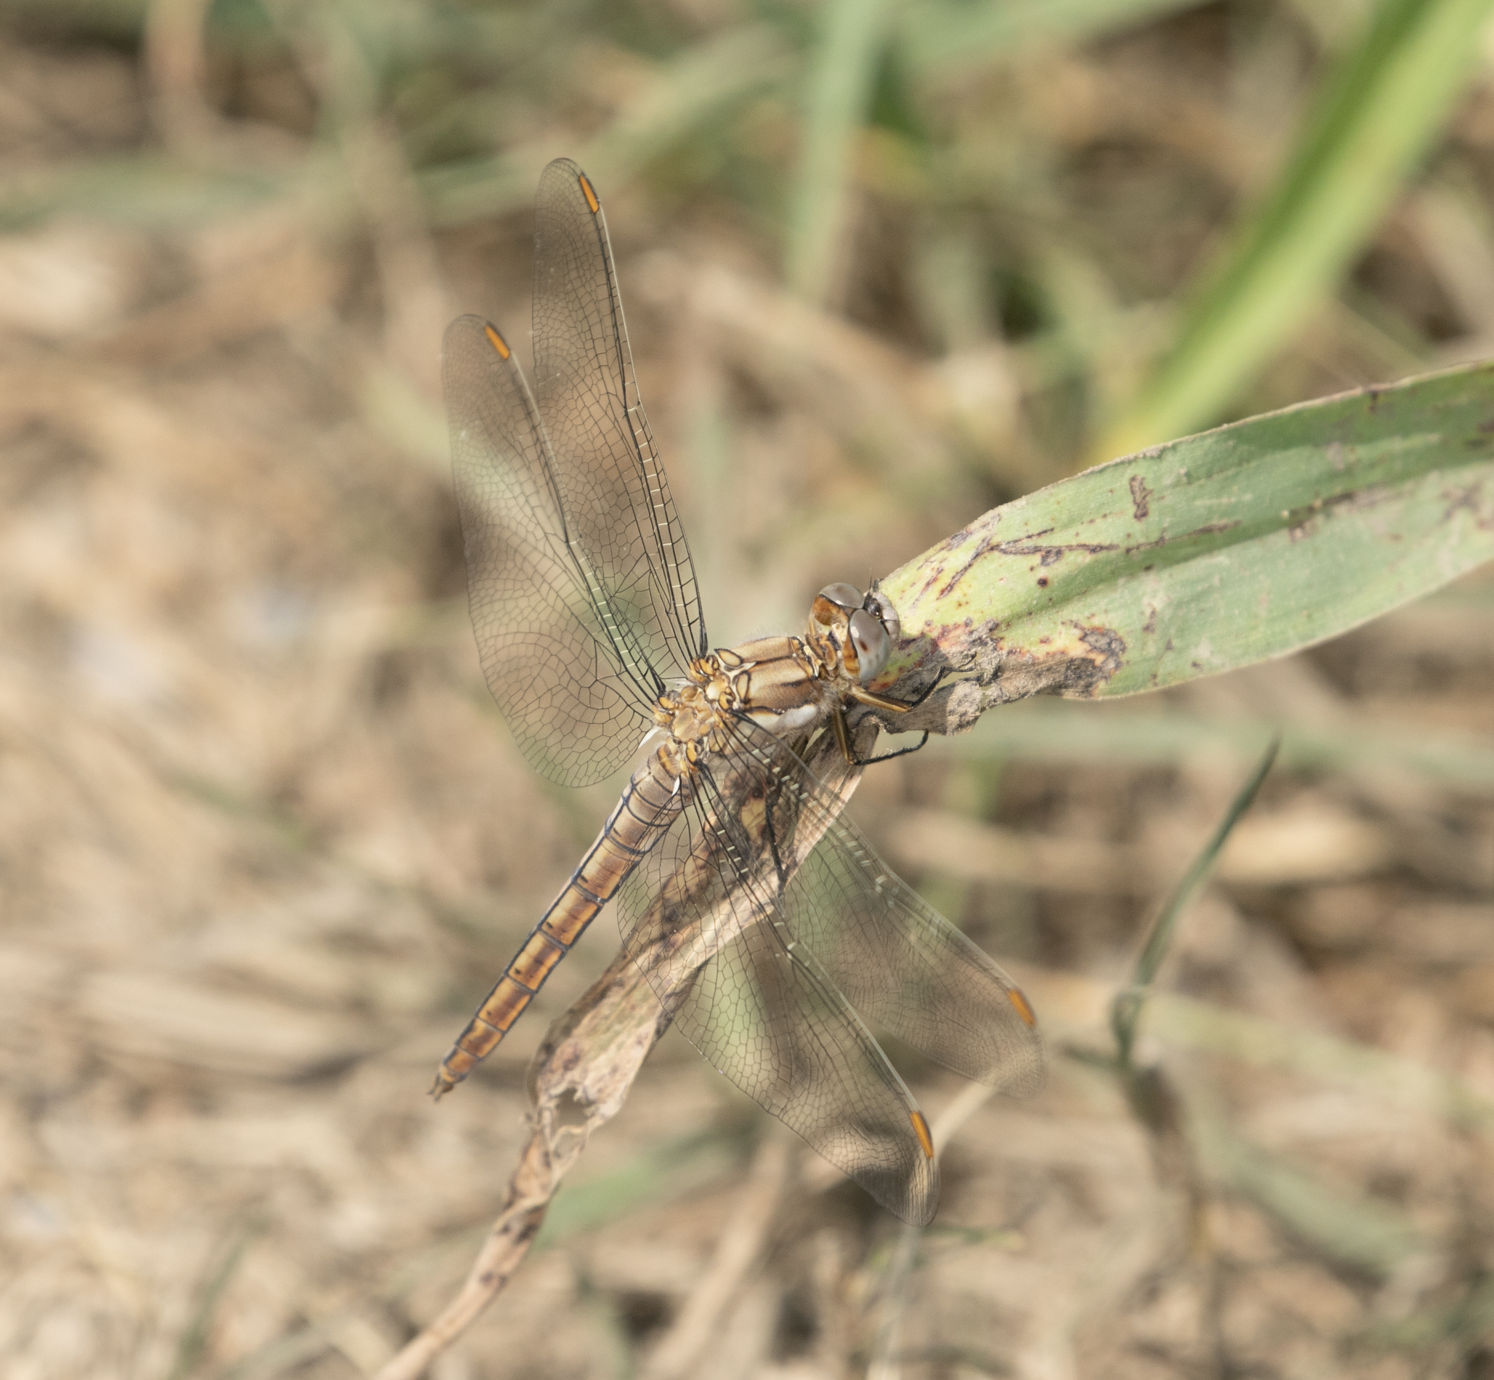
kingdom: Animalia
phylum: Arthropoda
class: Insecta
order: Odonata
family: Libellulidae
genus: Orthetrum
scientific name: Orthetrum brunneum
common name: Southern skimmer
